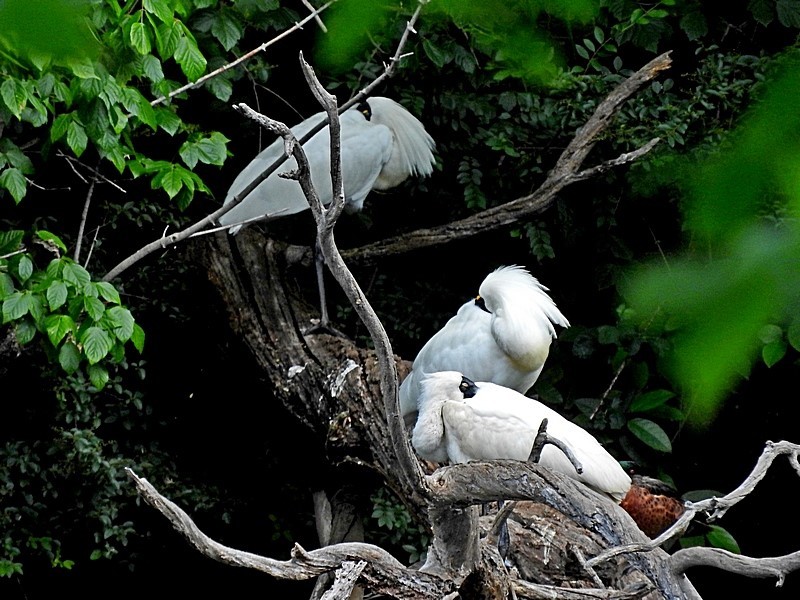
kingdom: Animalia
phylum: Chordata
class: Aves
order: Pelecaniformes
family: Threskiornithidae
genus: Platalea
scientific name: Platalea regia
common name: Royal spoonbill
